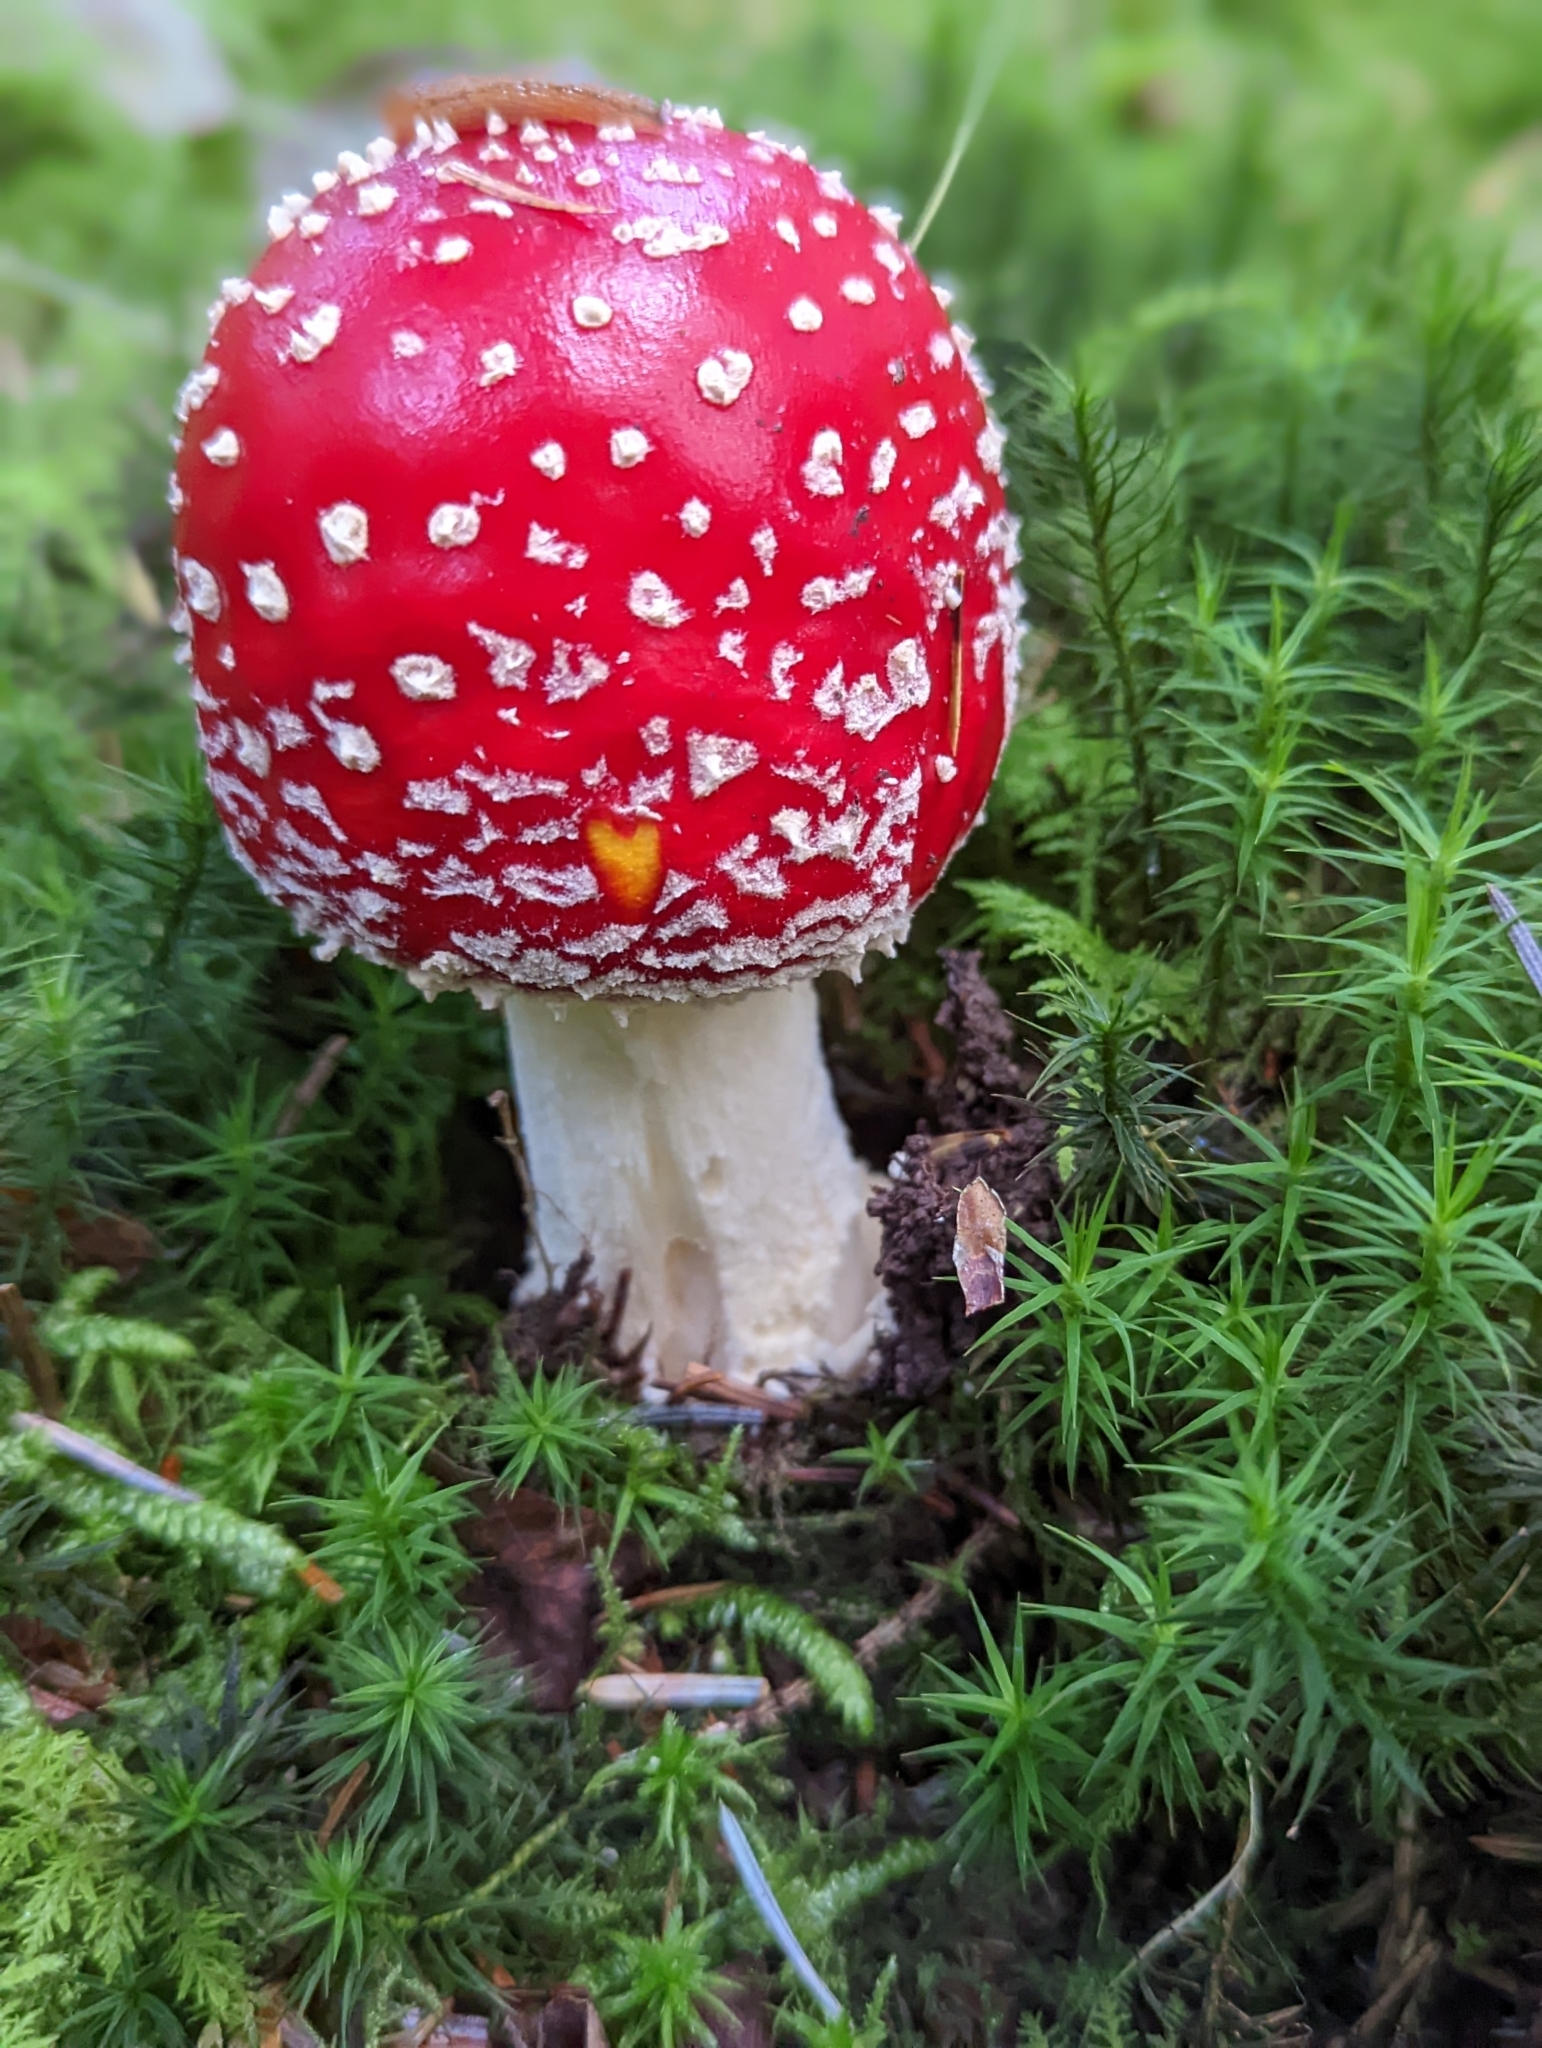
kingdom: Fungi
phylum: Basidiomycota
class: Agaricomycetes
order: Agaricales
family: Amanitaceae
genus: Amanita
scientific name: Amanita muscaria
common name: Fly agaric
